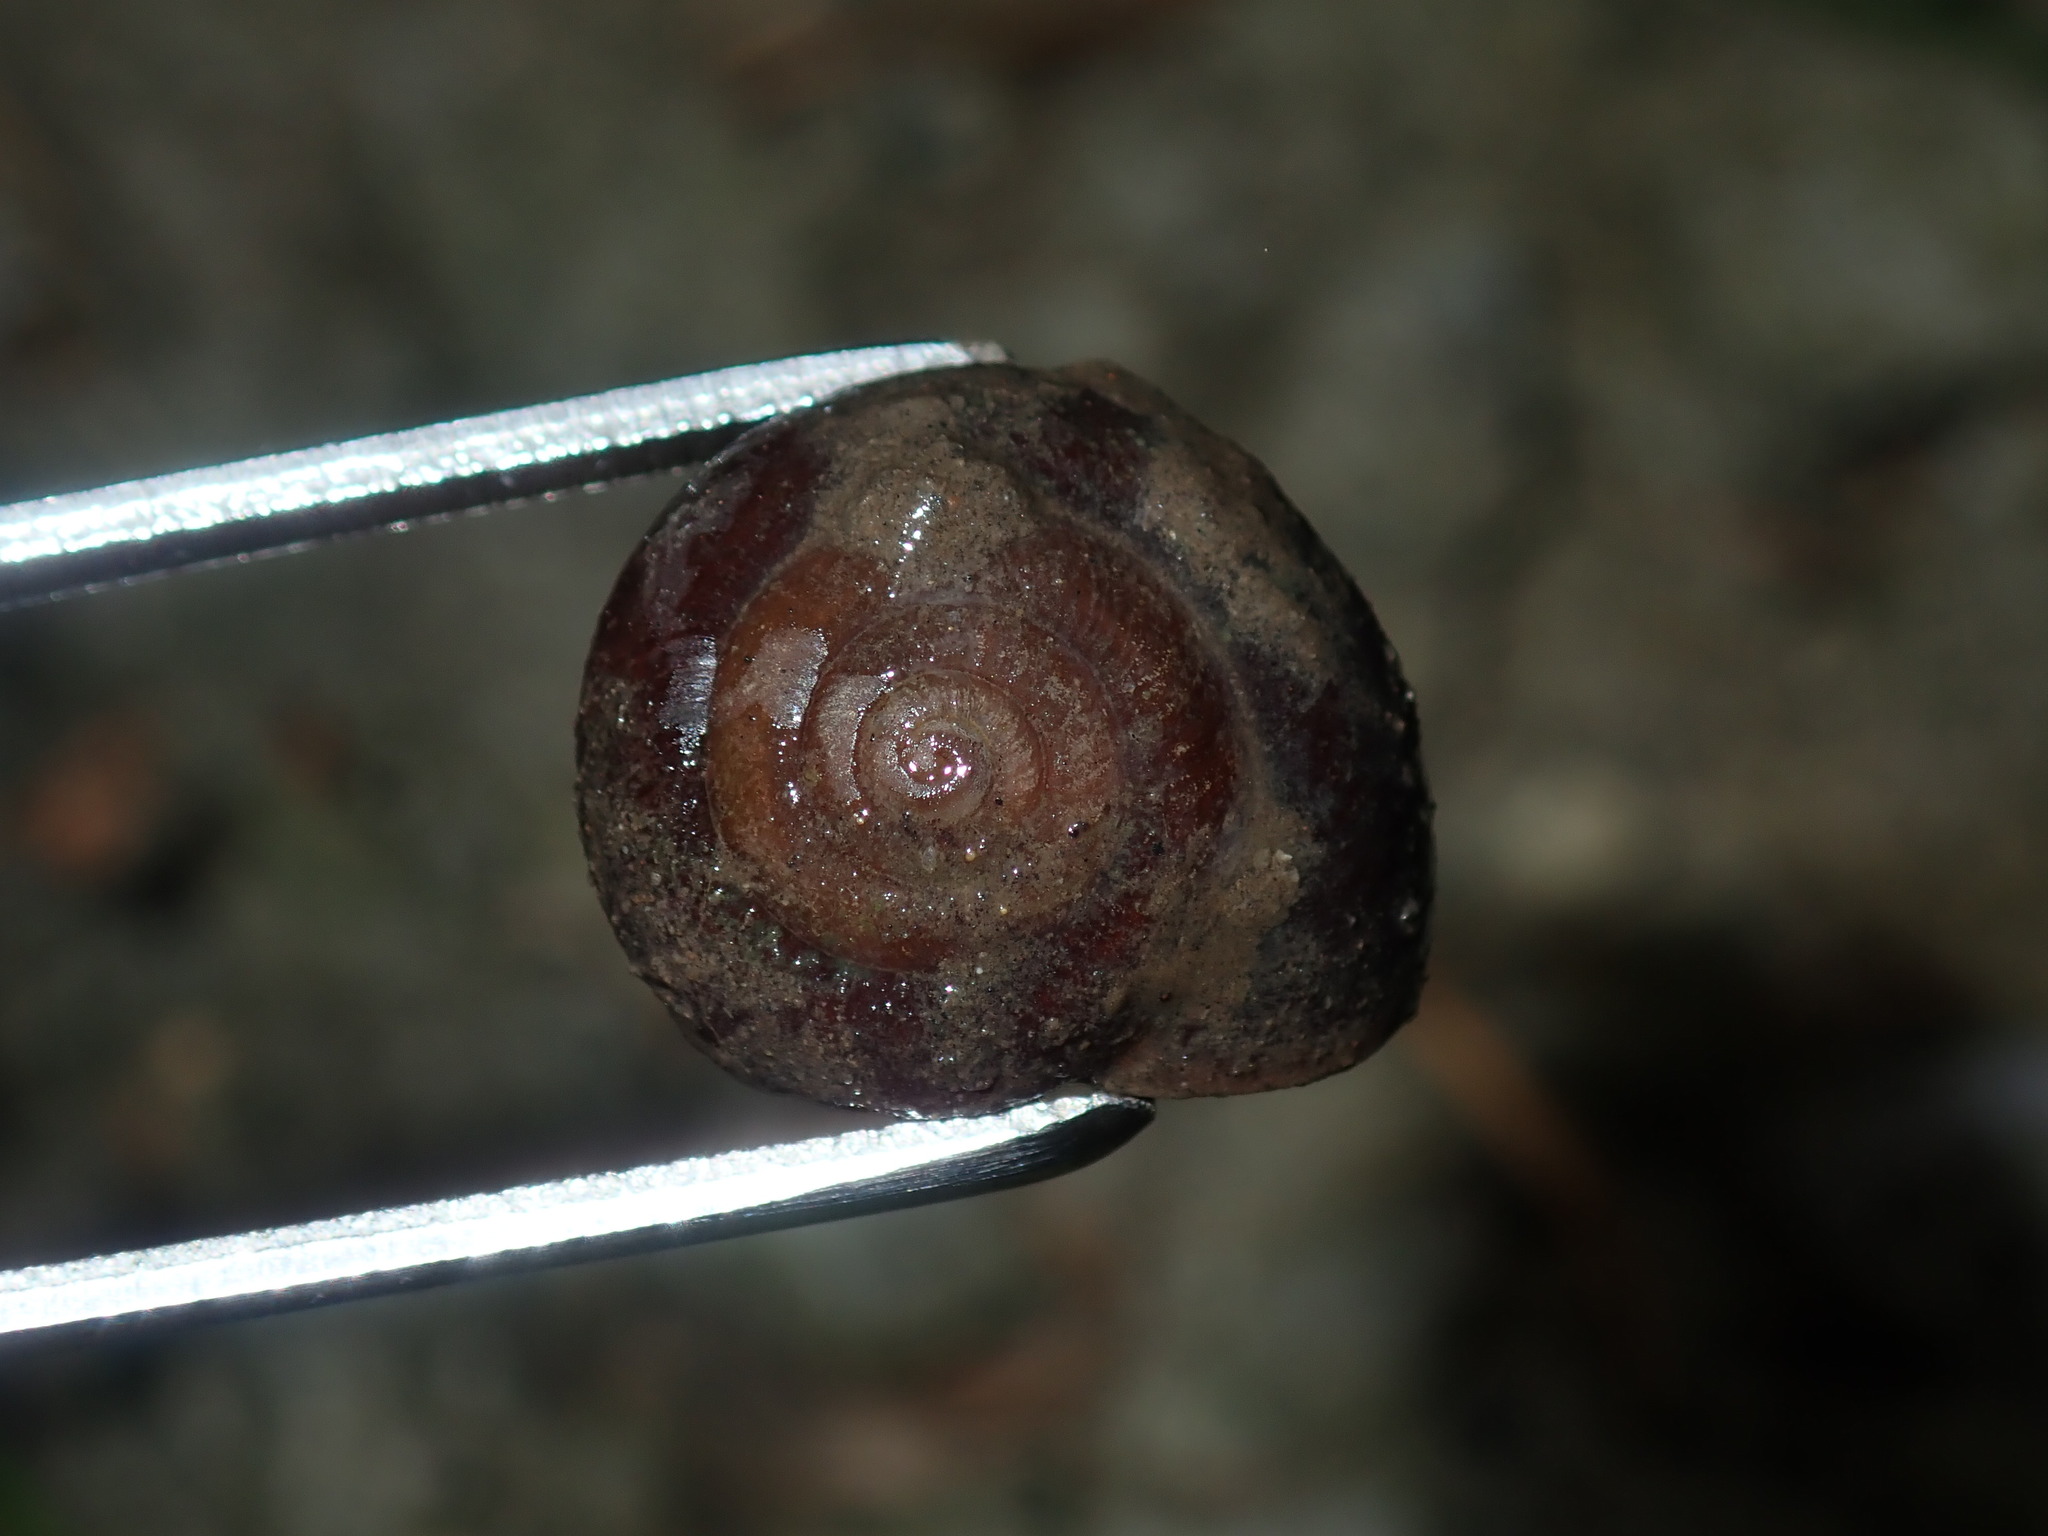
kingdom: Animalia
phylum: Mollusca
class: Gastropoda
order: Stylommatophora
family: Camaenidae
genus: Sauroconcha
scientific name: Sauroconcha sheai
